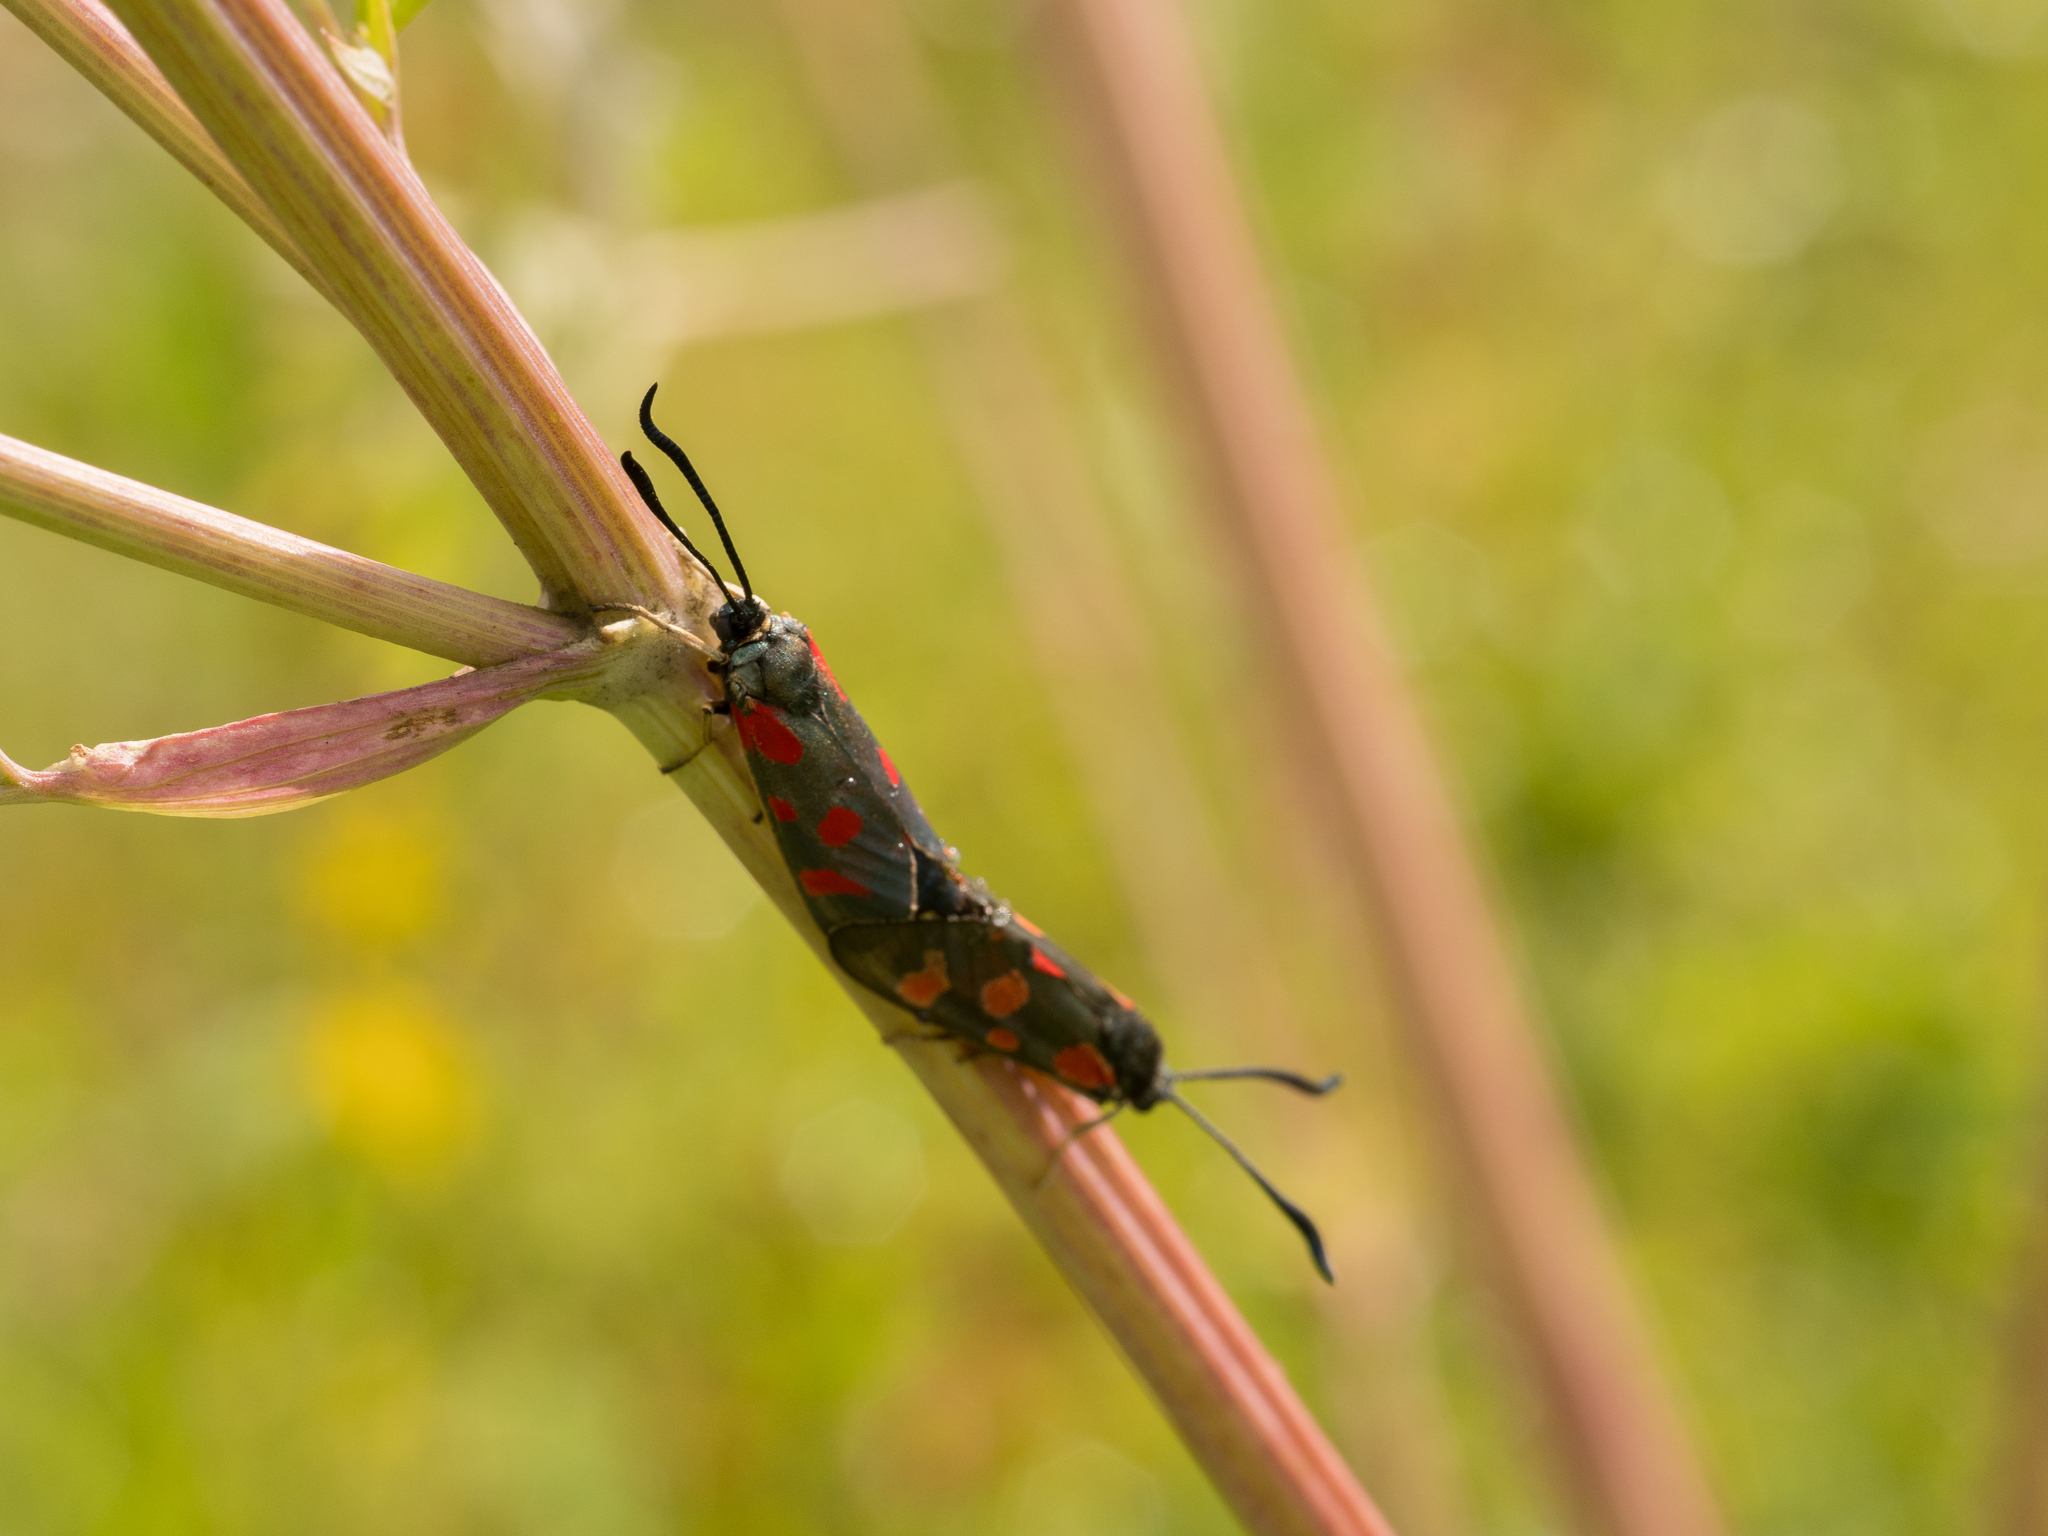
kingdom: Animalia
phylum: Arthropoda
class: Insecta
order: Lepidoptera
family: Zygaenidae
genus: Zygaena
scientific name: Zygaena carniolica
